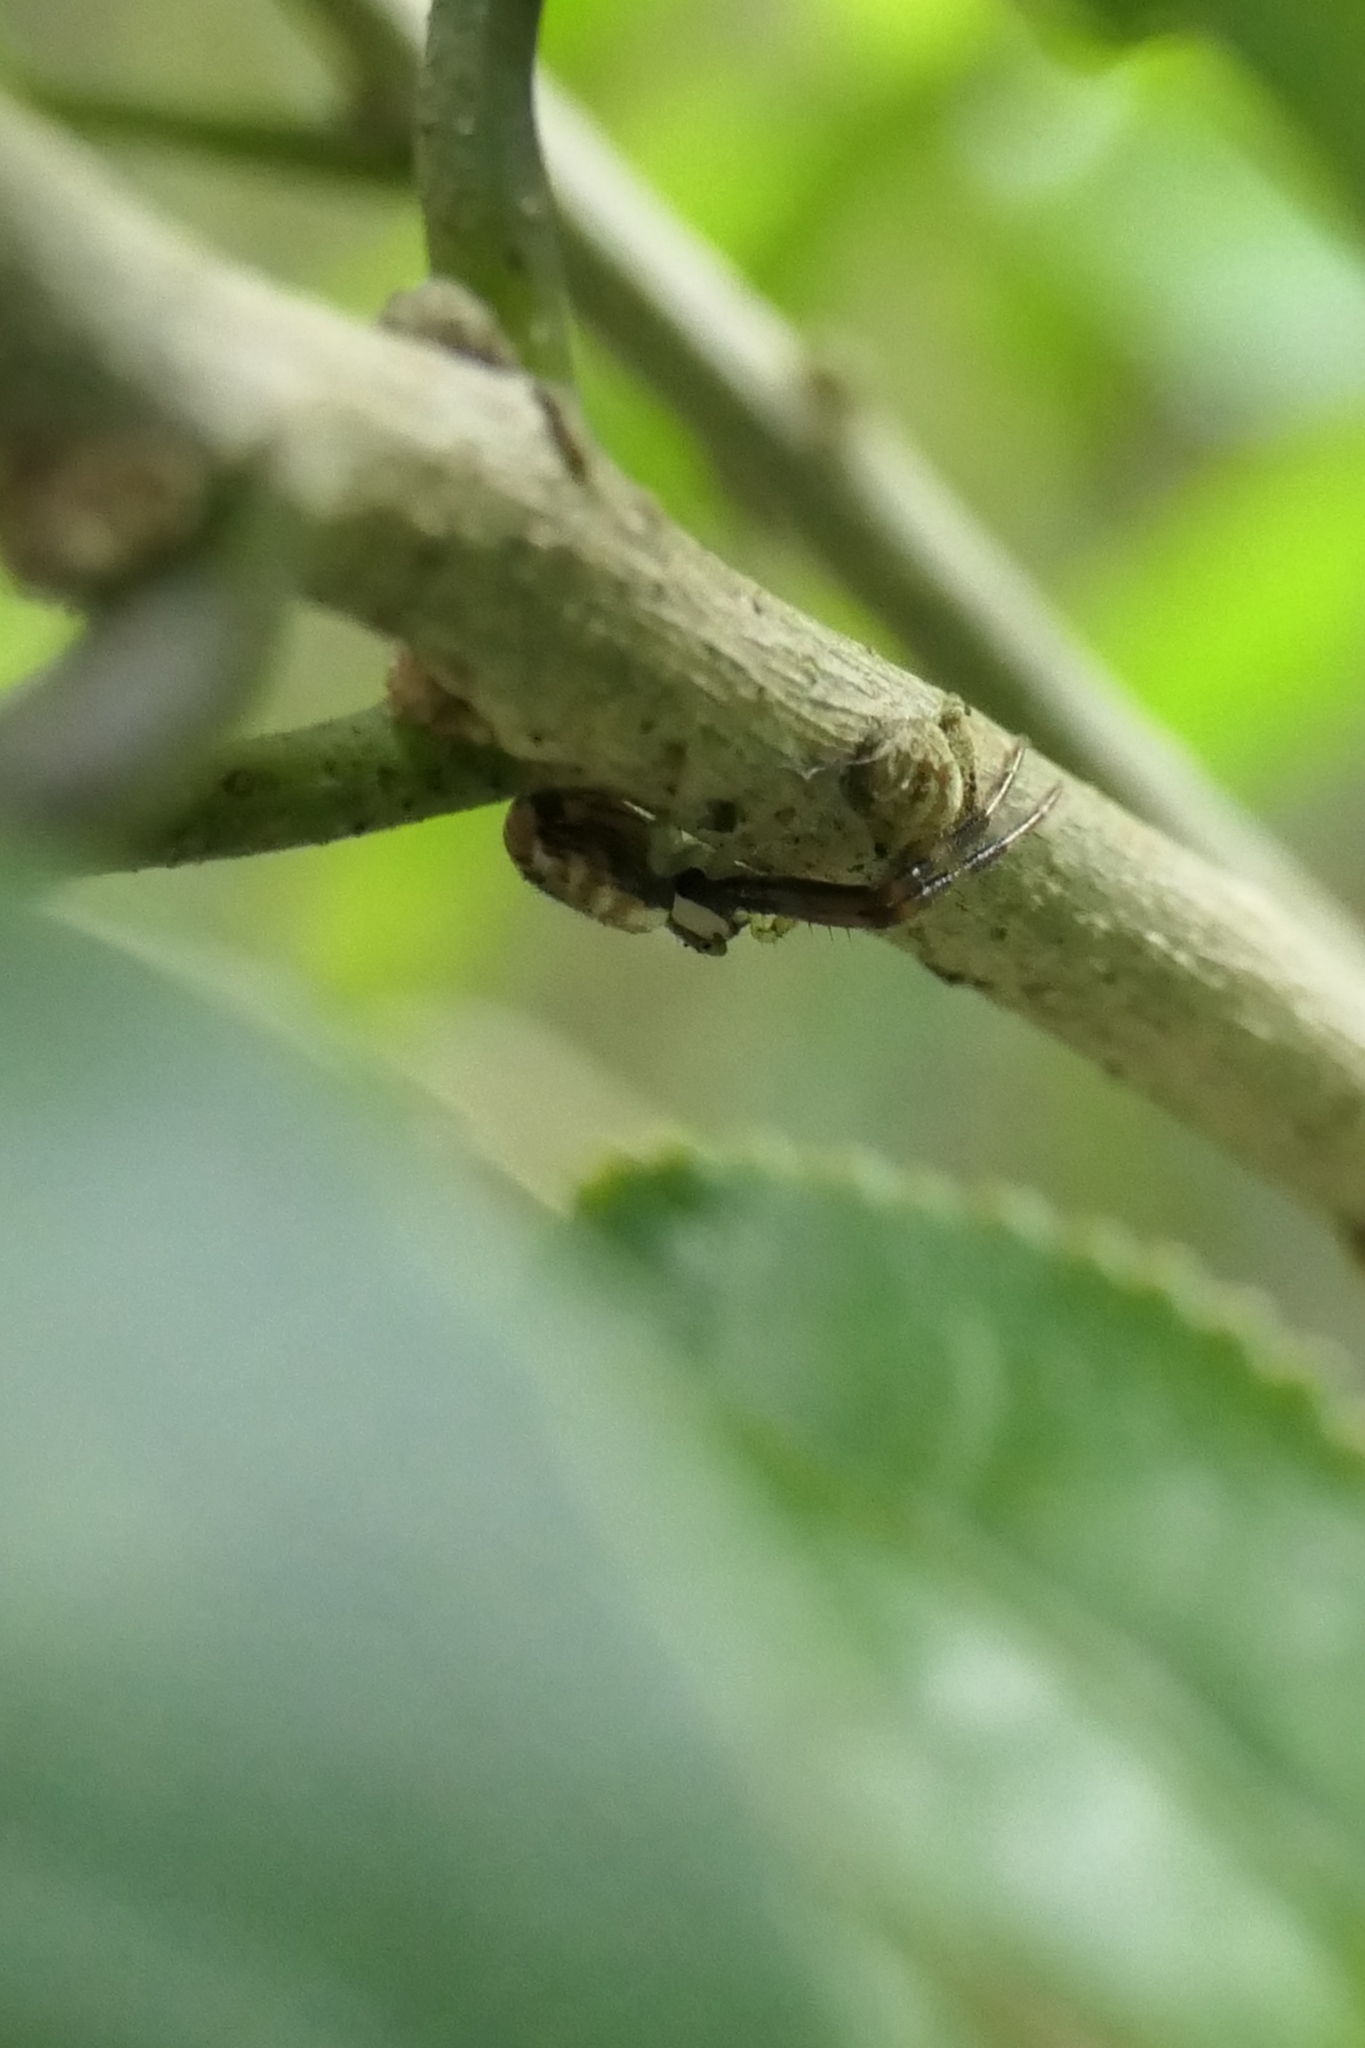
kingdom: Animalia
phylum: Arthropoda
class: Arachnida
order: Araneae
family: Thomisidae
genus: Diaea
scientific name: Diaea ambara
